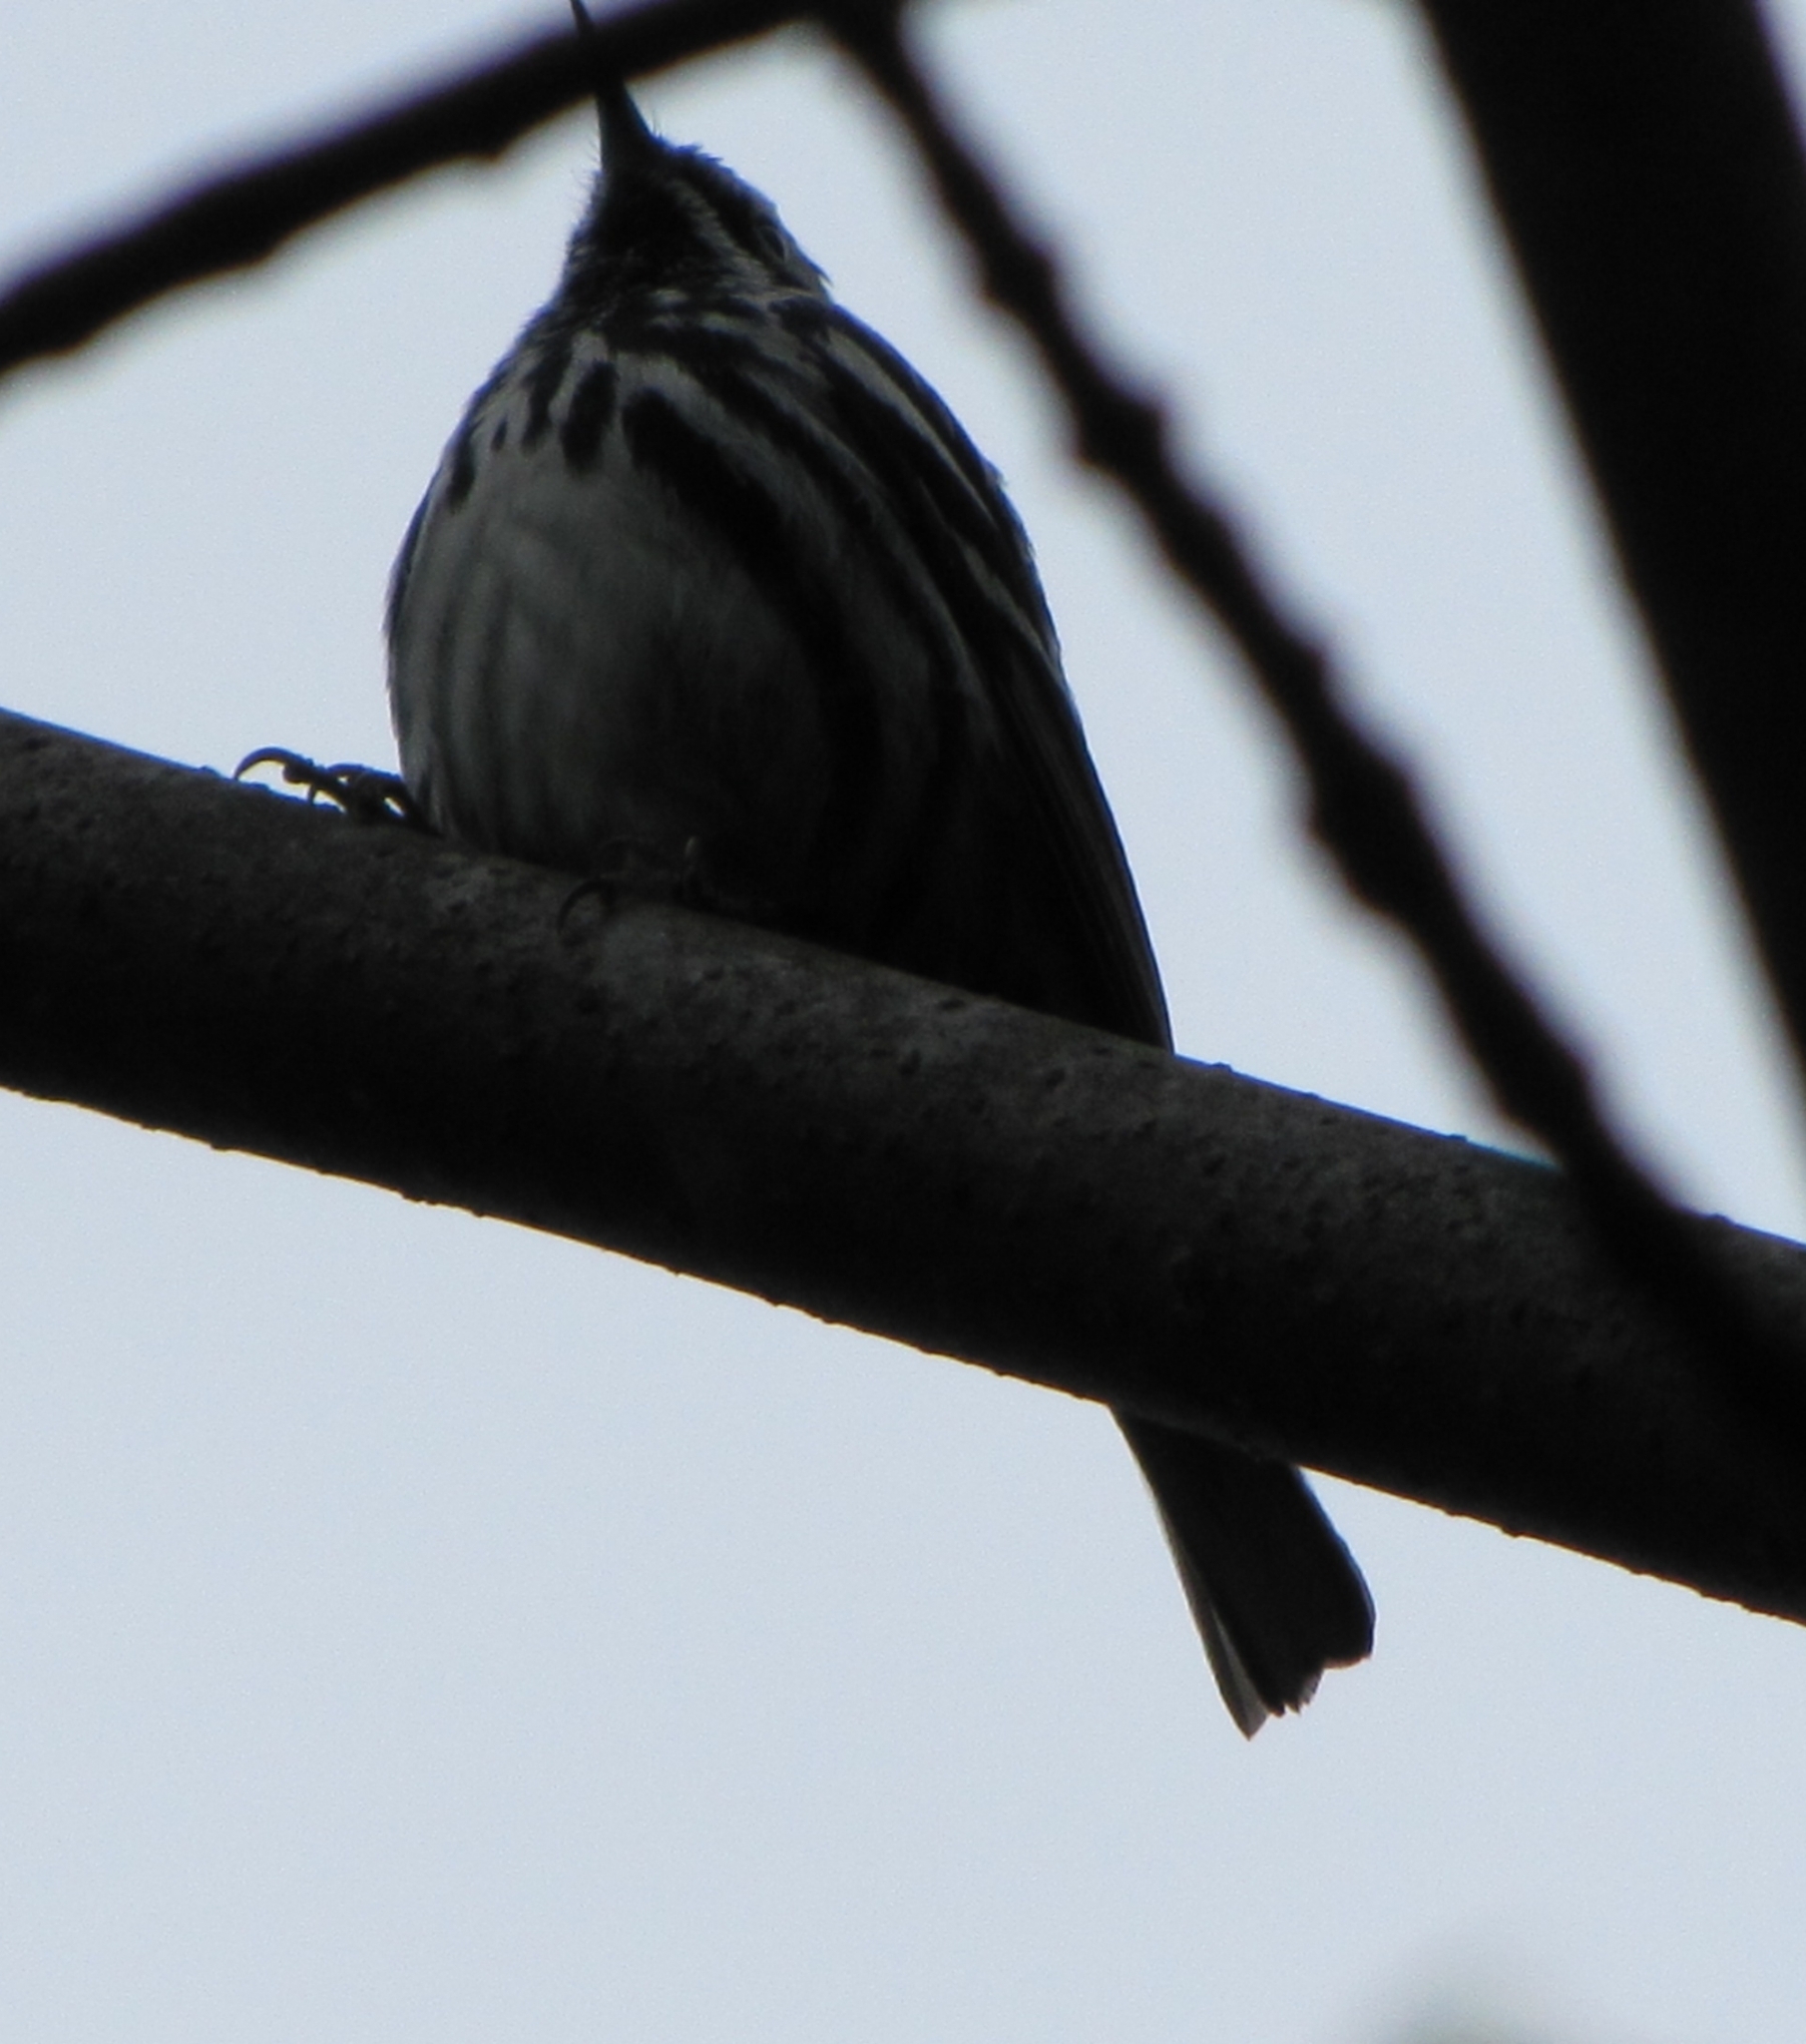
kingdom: Animalia
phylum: Chordata
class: Aves
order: Passeriformes
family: Parulidae
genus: Mniotilta
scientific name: Mniotilta varia
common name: Black-and-white warbler
